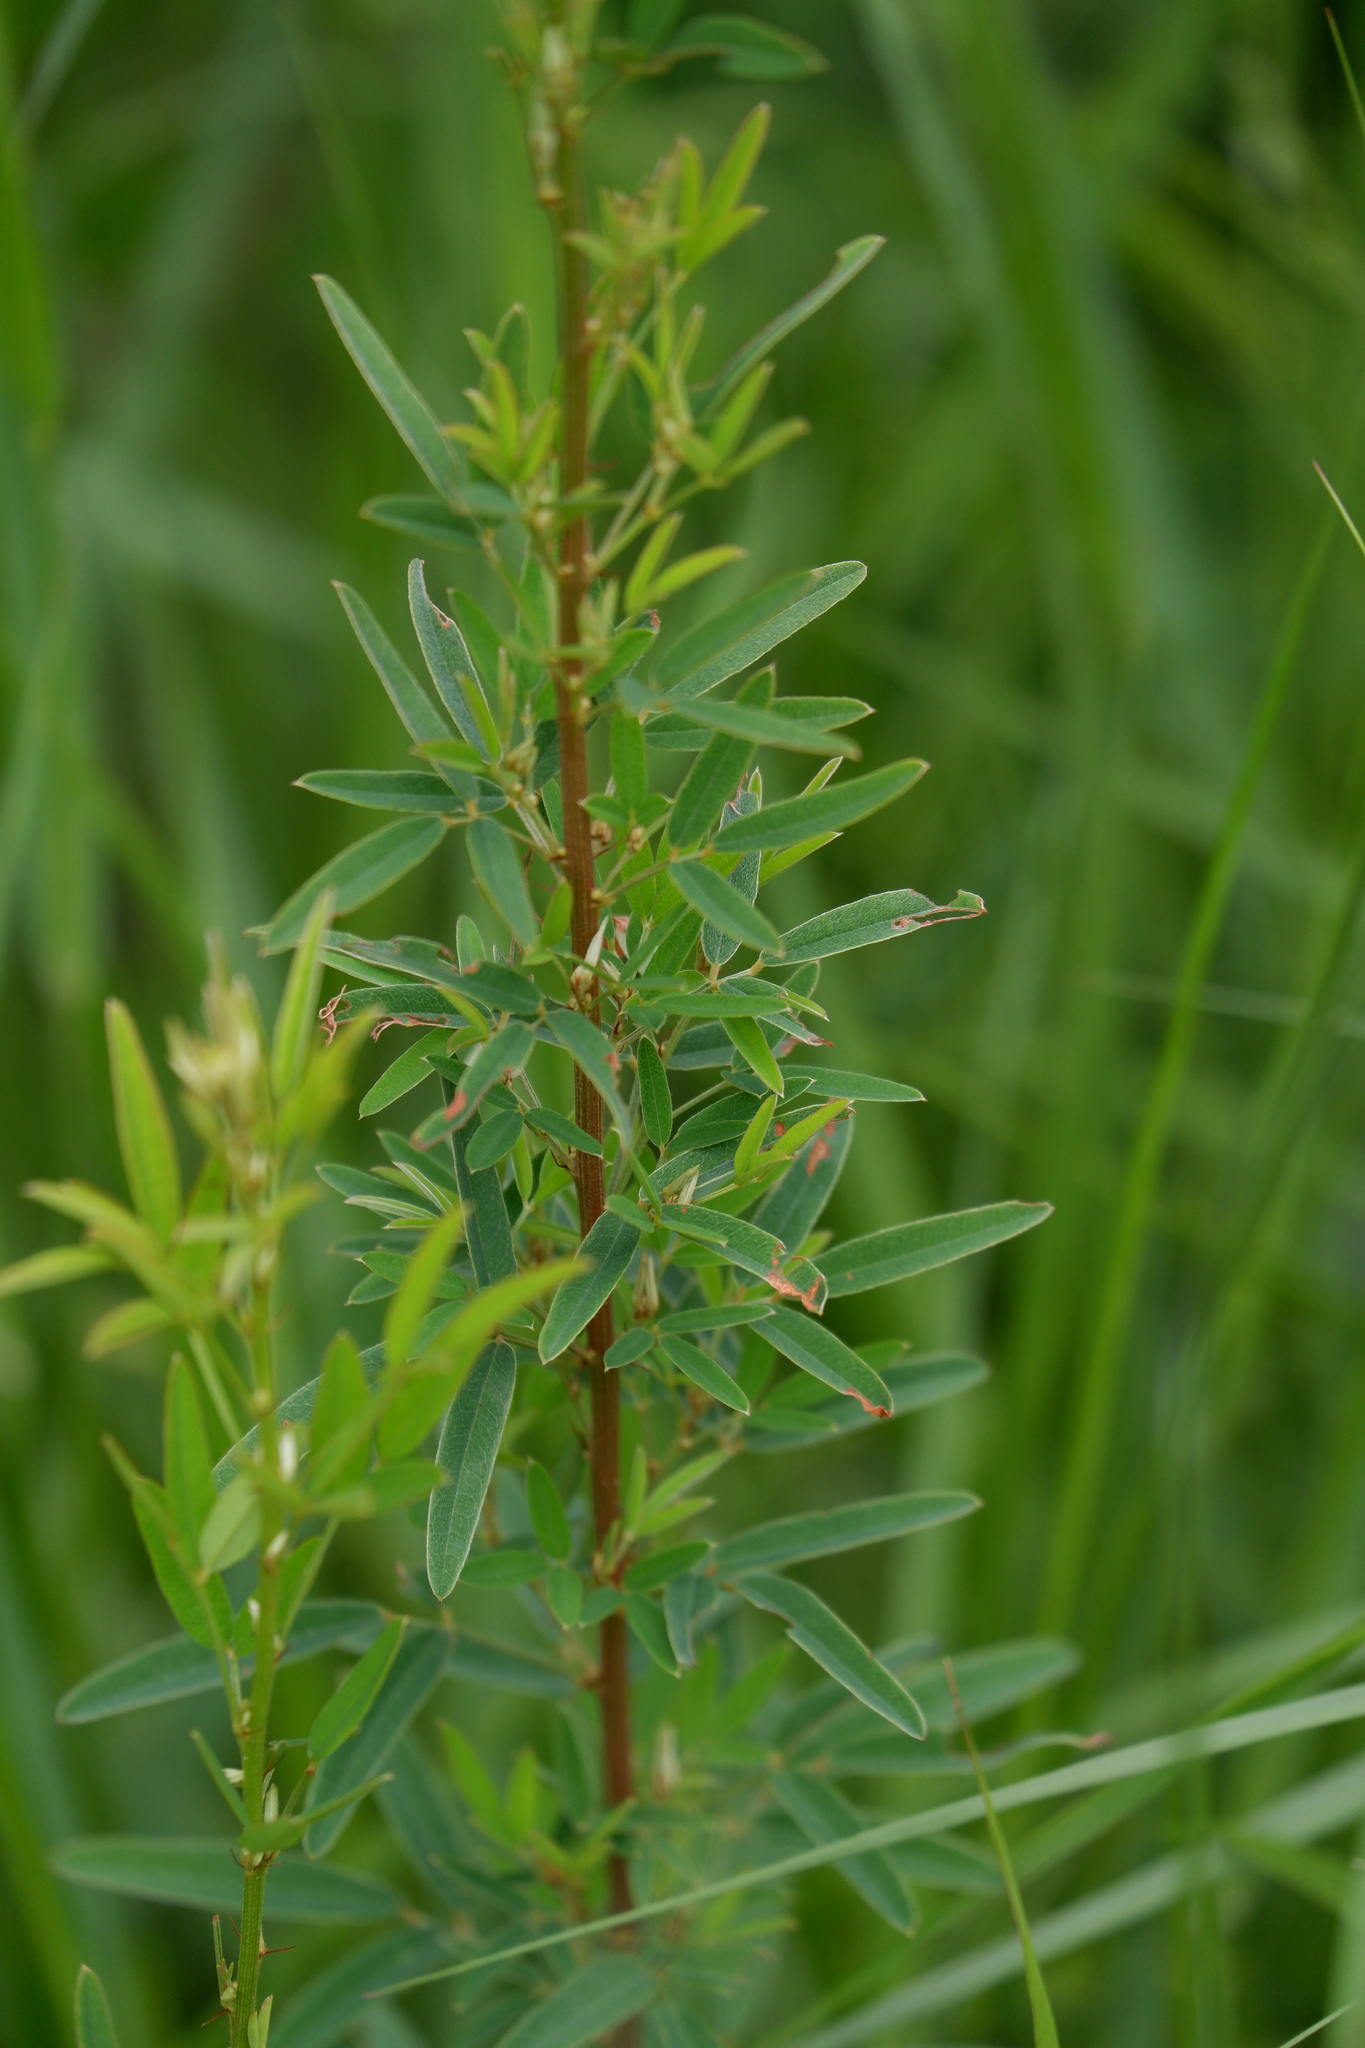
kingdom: Plantae
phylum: Tracheophyta
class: Magnoliopsida
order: Fabales
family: Fabaceae
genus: Lespedeza
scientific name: Lespedeza virginica
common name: Slender bush-clover
